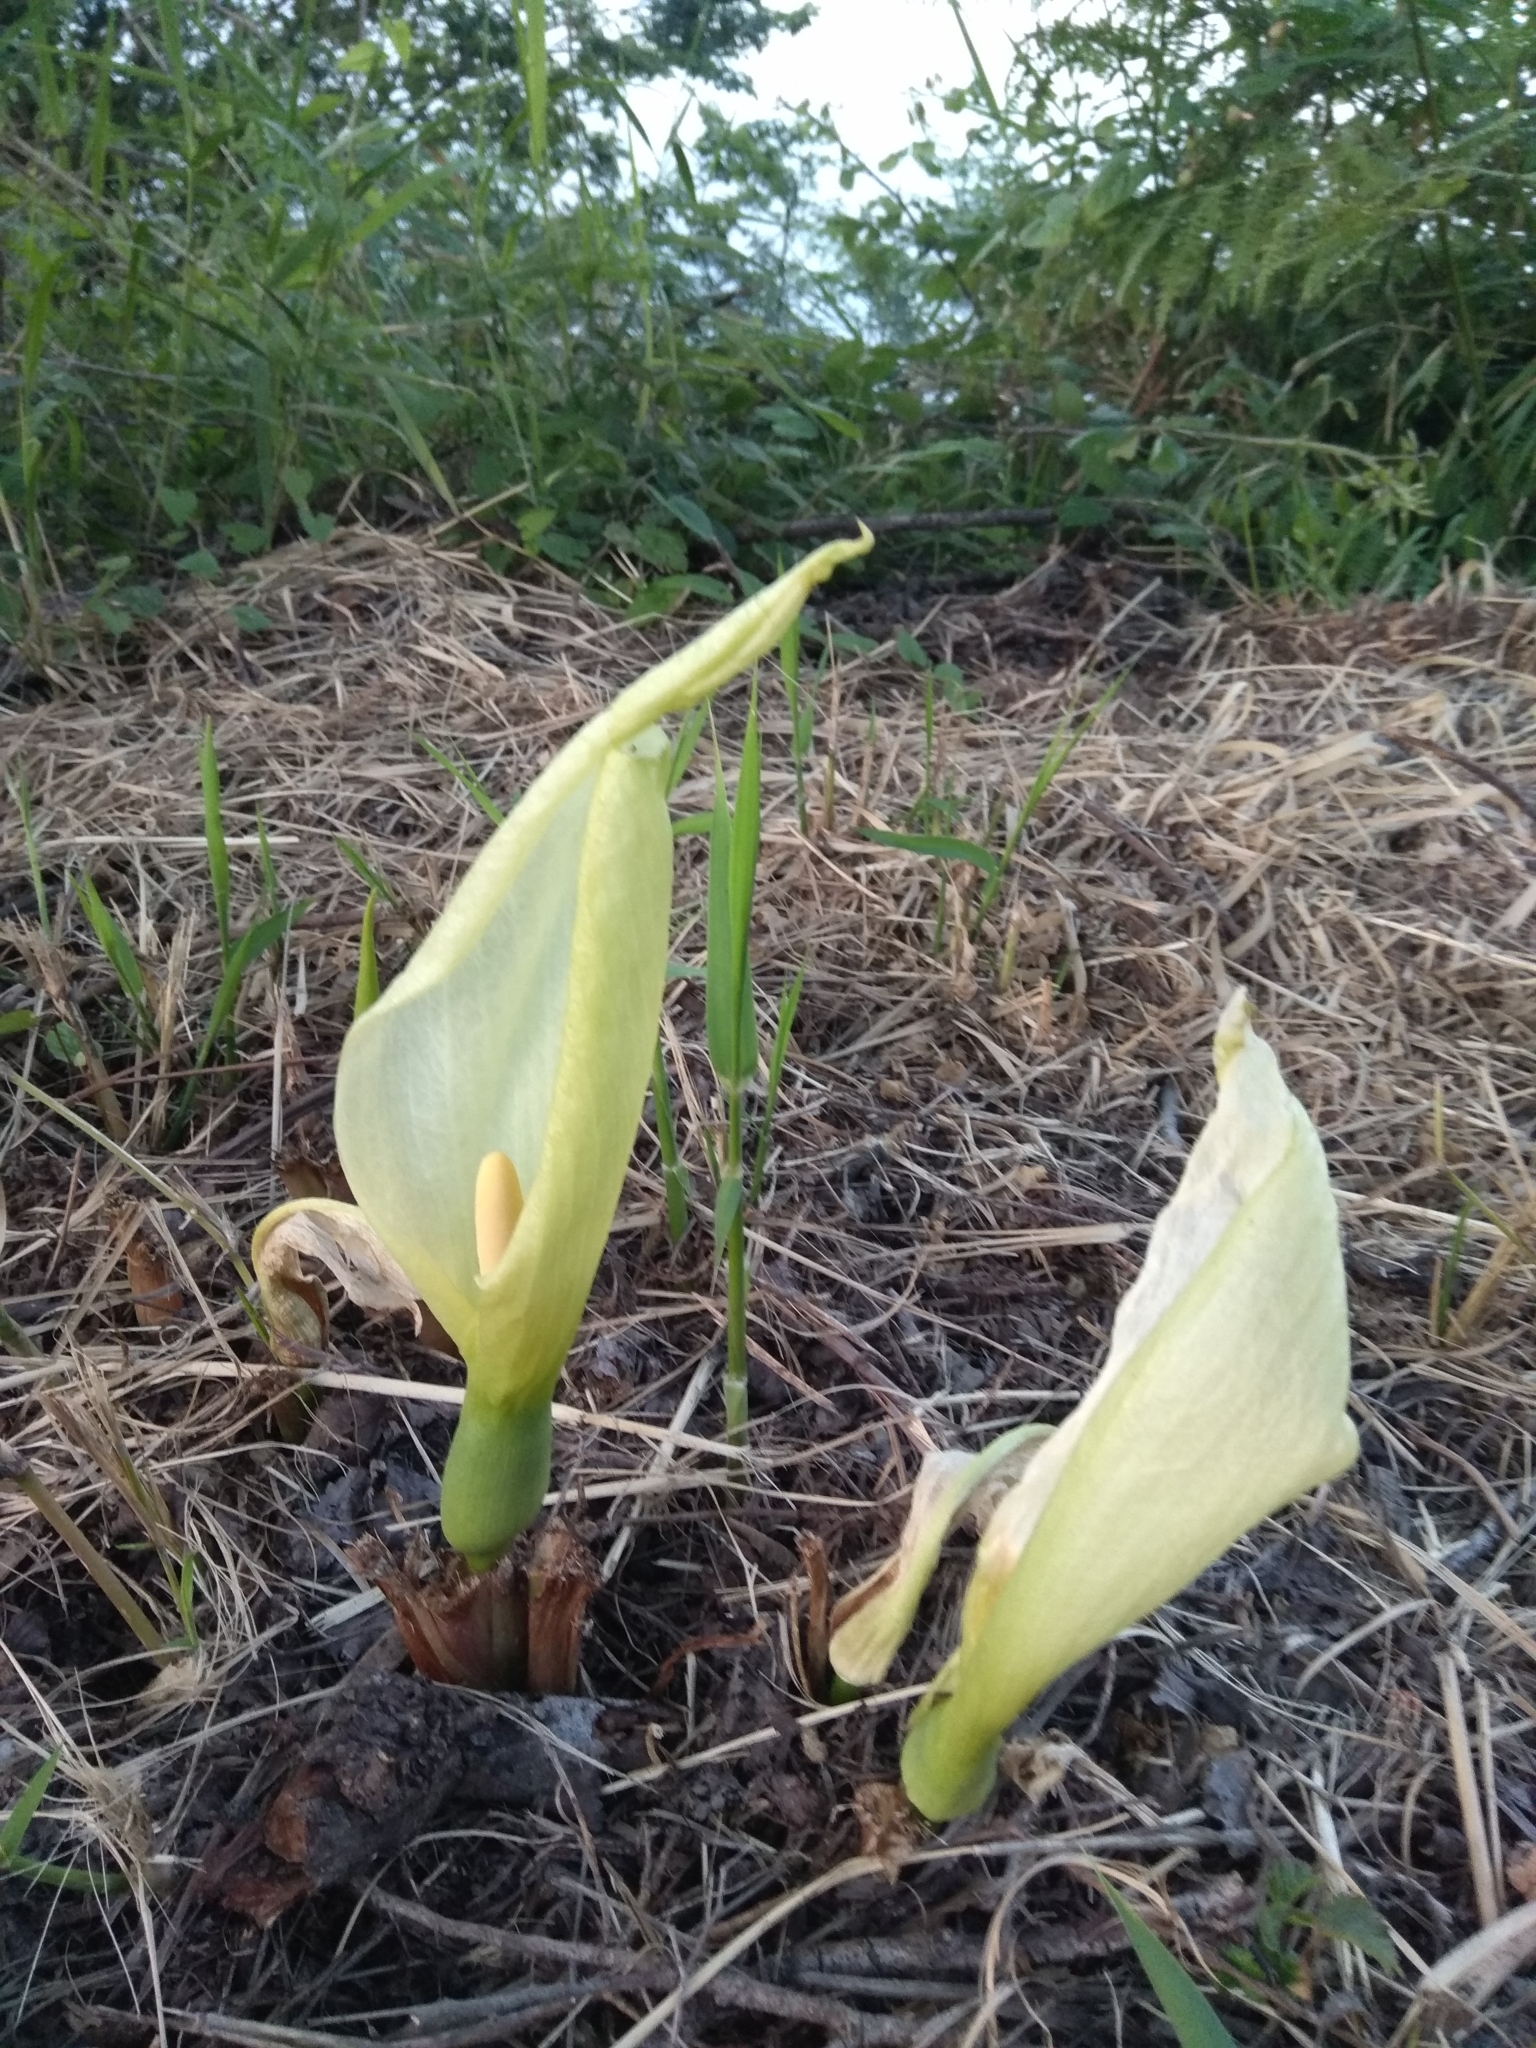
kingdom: Plantae
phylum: Tracheophyta
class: Liliopsida
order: Alismatales
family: Araceae
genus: Arum
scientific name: Arum italicum
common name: Italian lords-and-ladies
